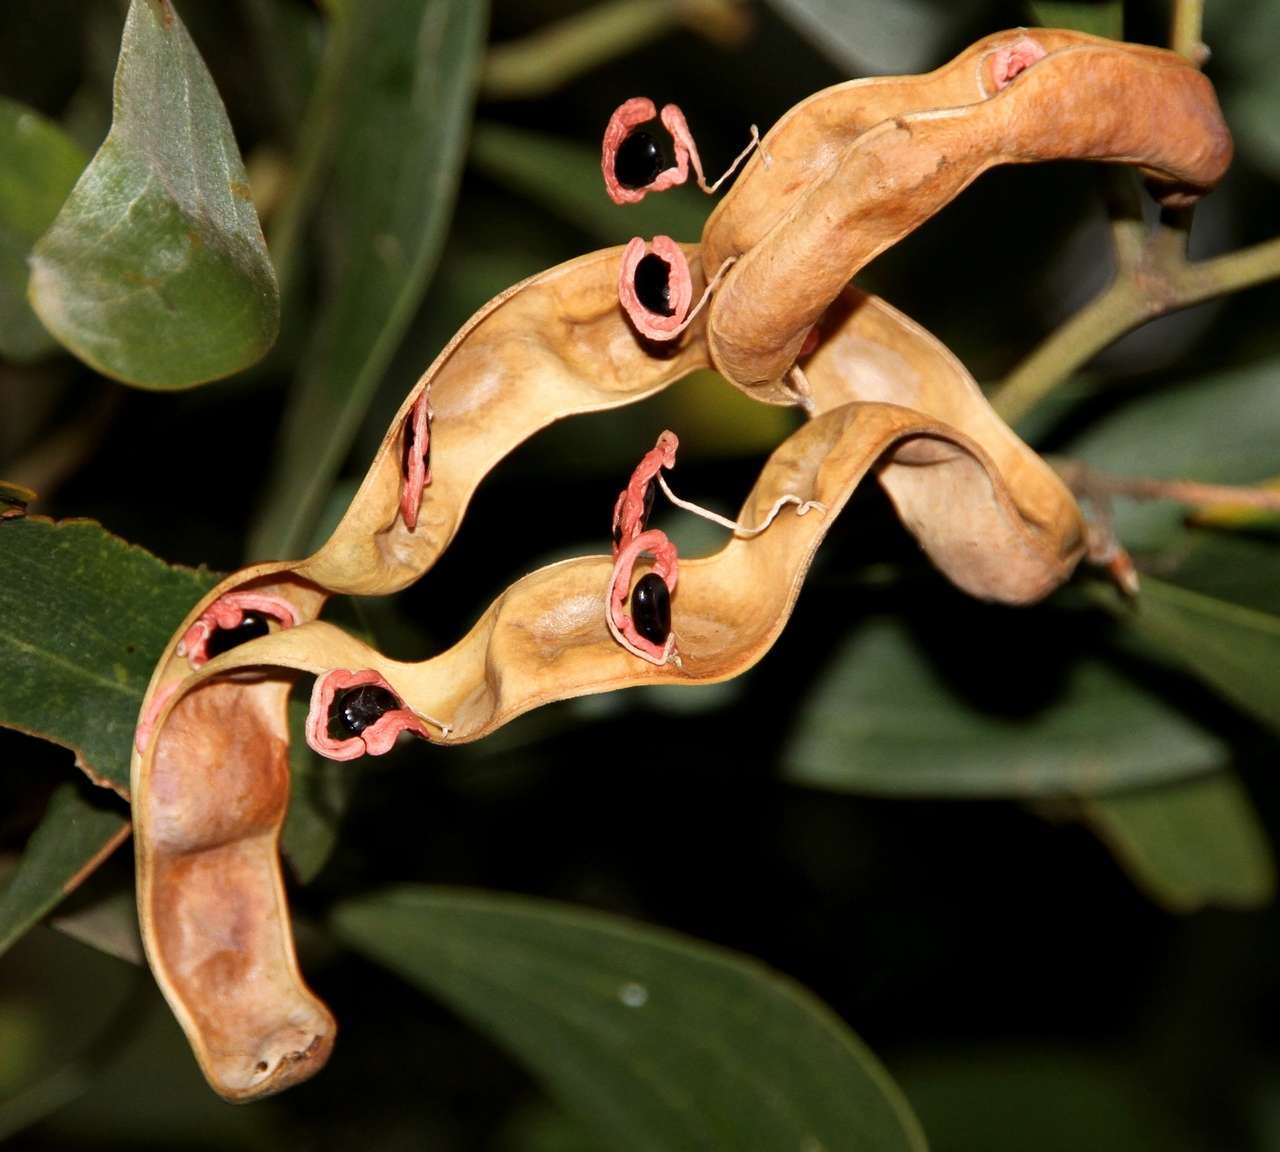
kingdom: Plantae
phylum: Tracheophyta
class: Magnoliopsida
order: Fabales
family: Fabaceae
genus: Acacia
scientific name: Acacia melanoxylon
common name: Blackwood
